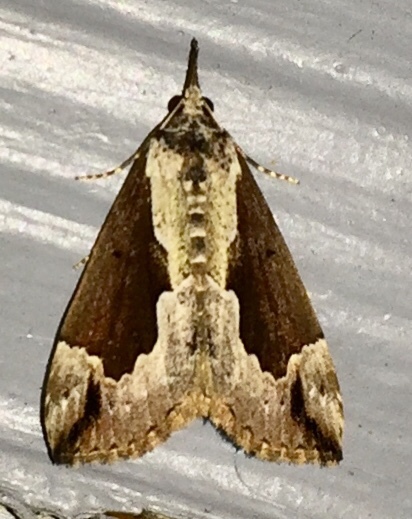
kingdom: Animalia
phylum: Arthropoda
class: Insecta
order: Lepidoptera
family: Erebidae
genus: Hypena
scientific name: Hypena baltimoralis
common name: Baltimore snout
